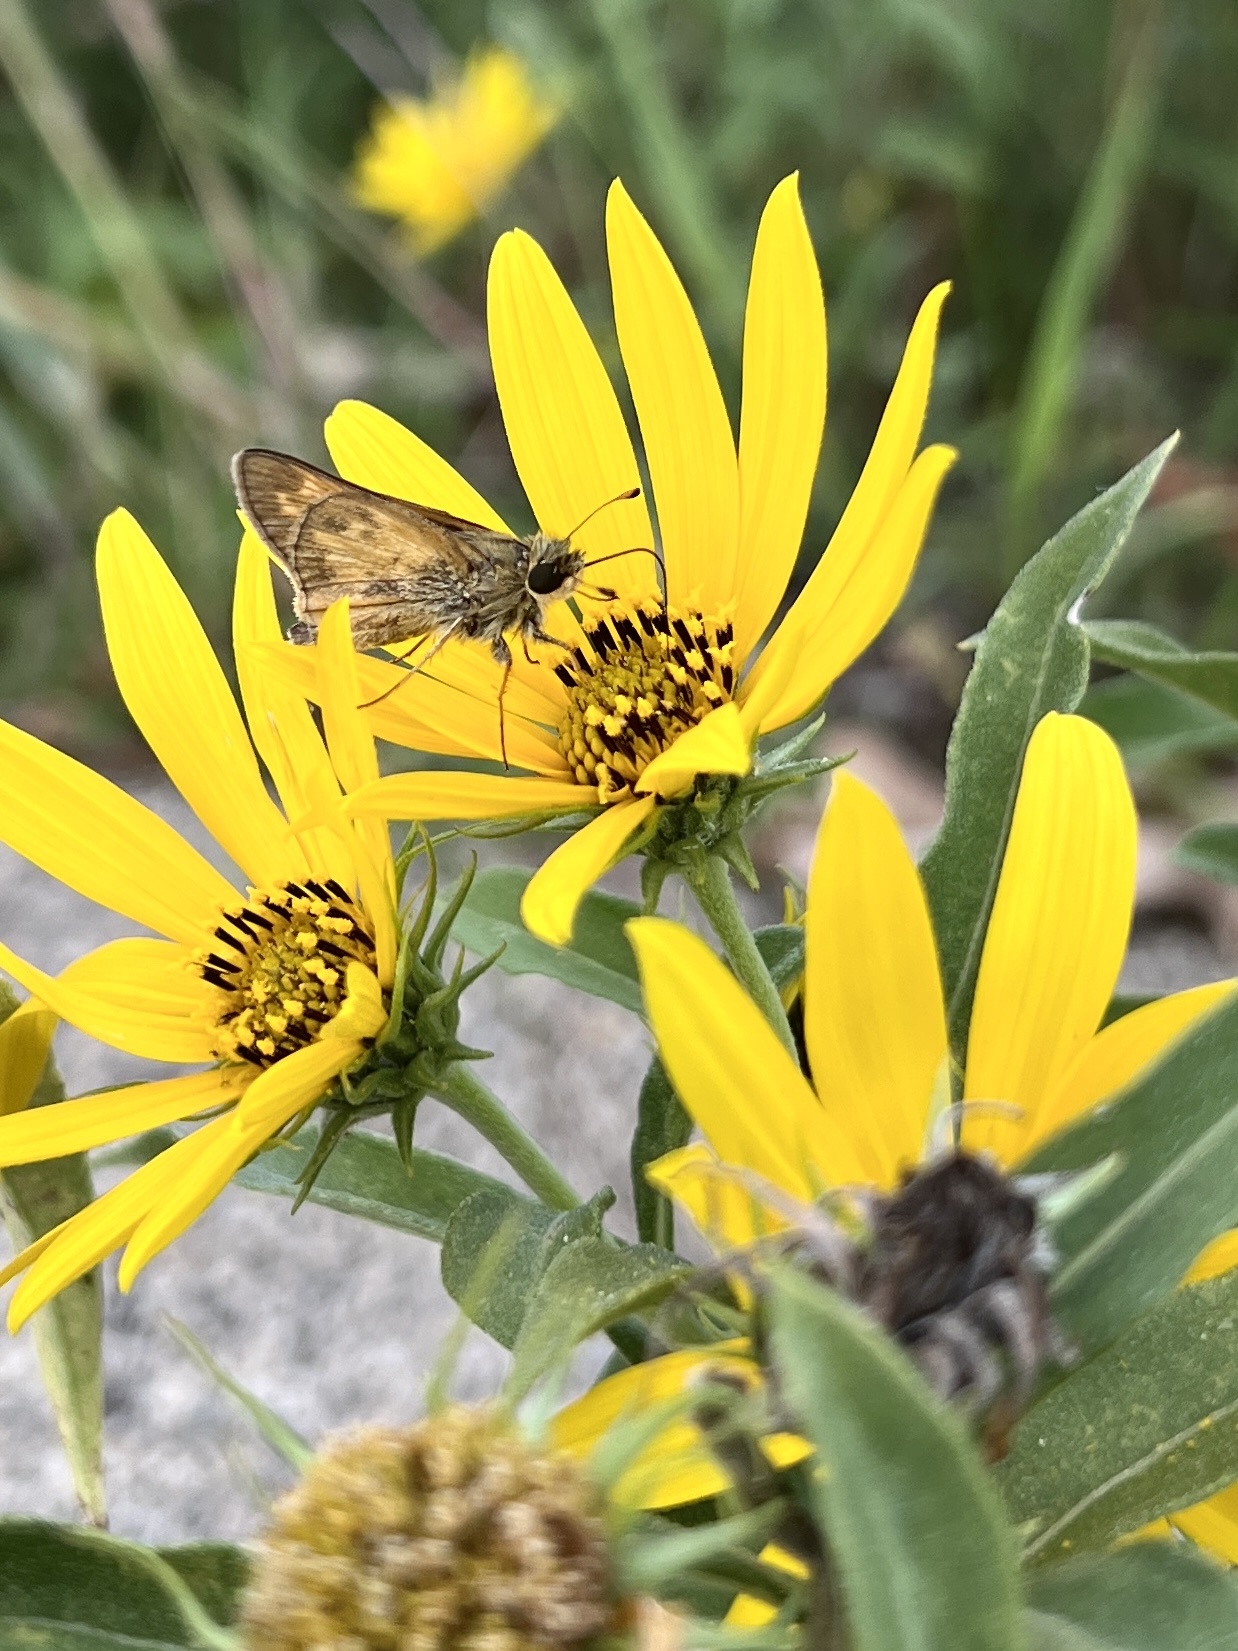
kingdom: Animalia
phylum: Arthropoda
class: Insecta
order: Lepidoptera
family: Hesperiidae
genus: Atalopedes
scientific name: Atalopedes
